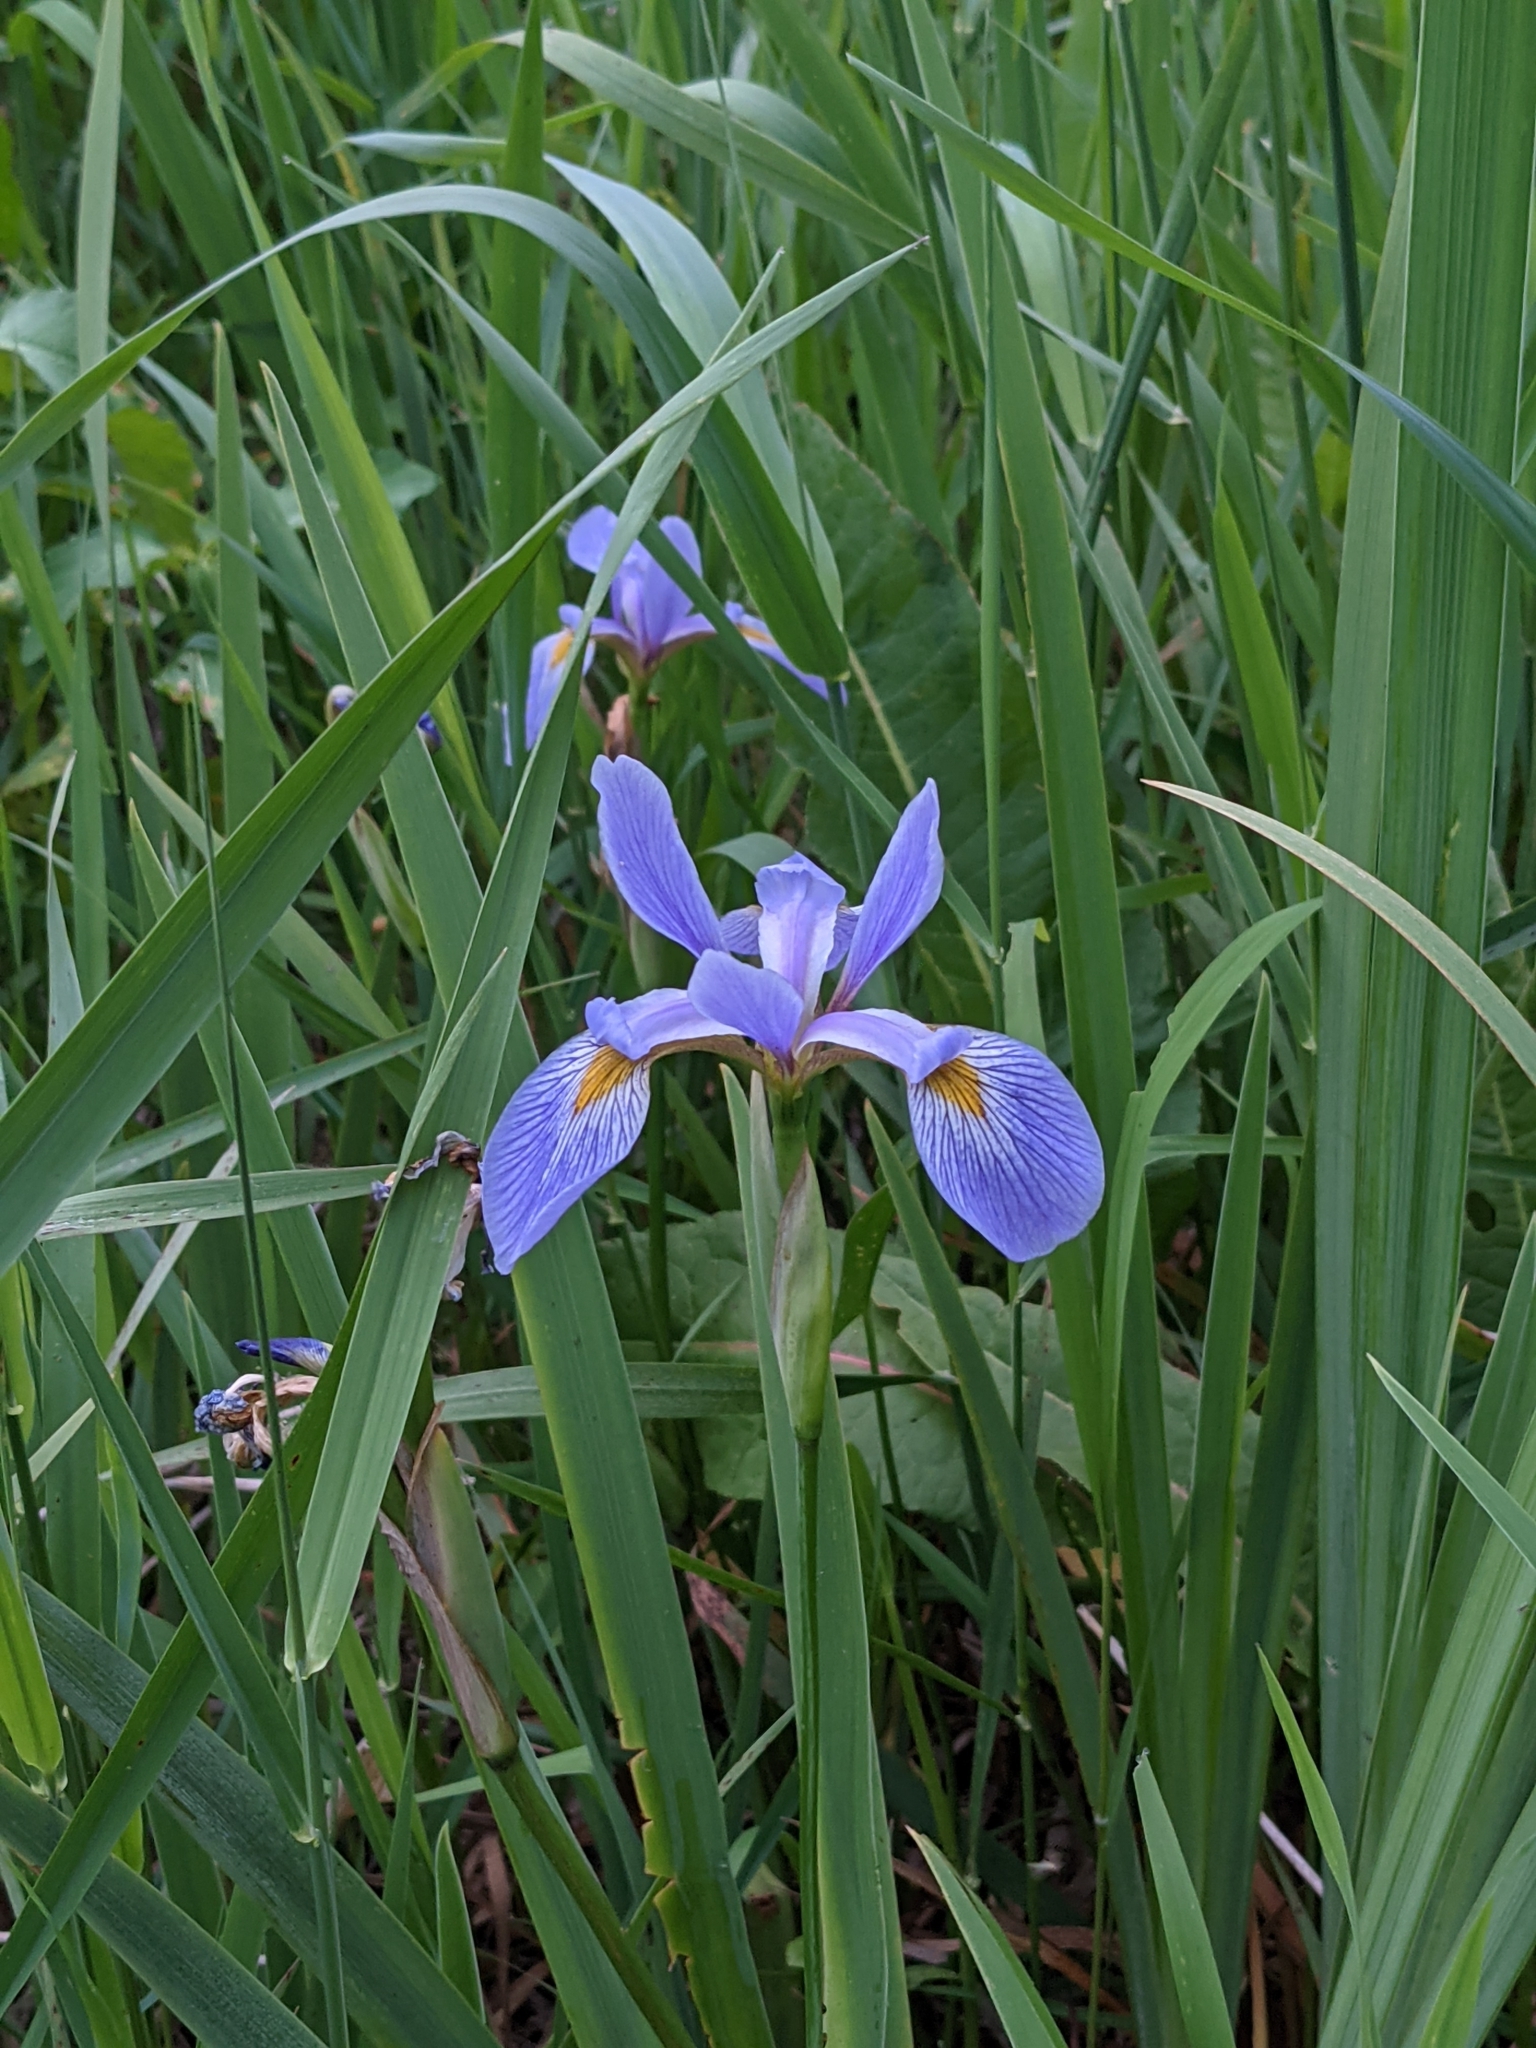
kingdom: Plantae
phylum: Tracheophyta
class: Liliopsida
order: Asparagales
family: Iridaceae
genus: Iris
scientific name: Iris virginica
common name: Southern blue flag
